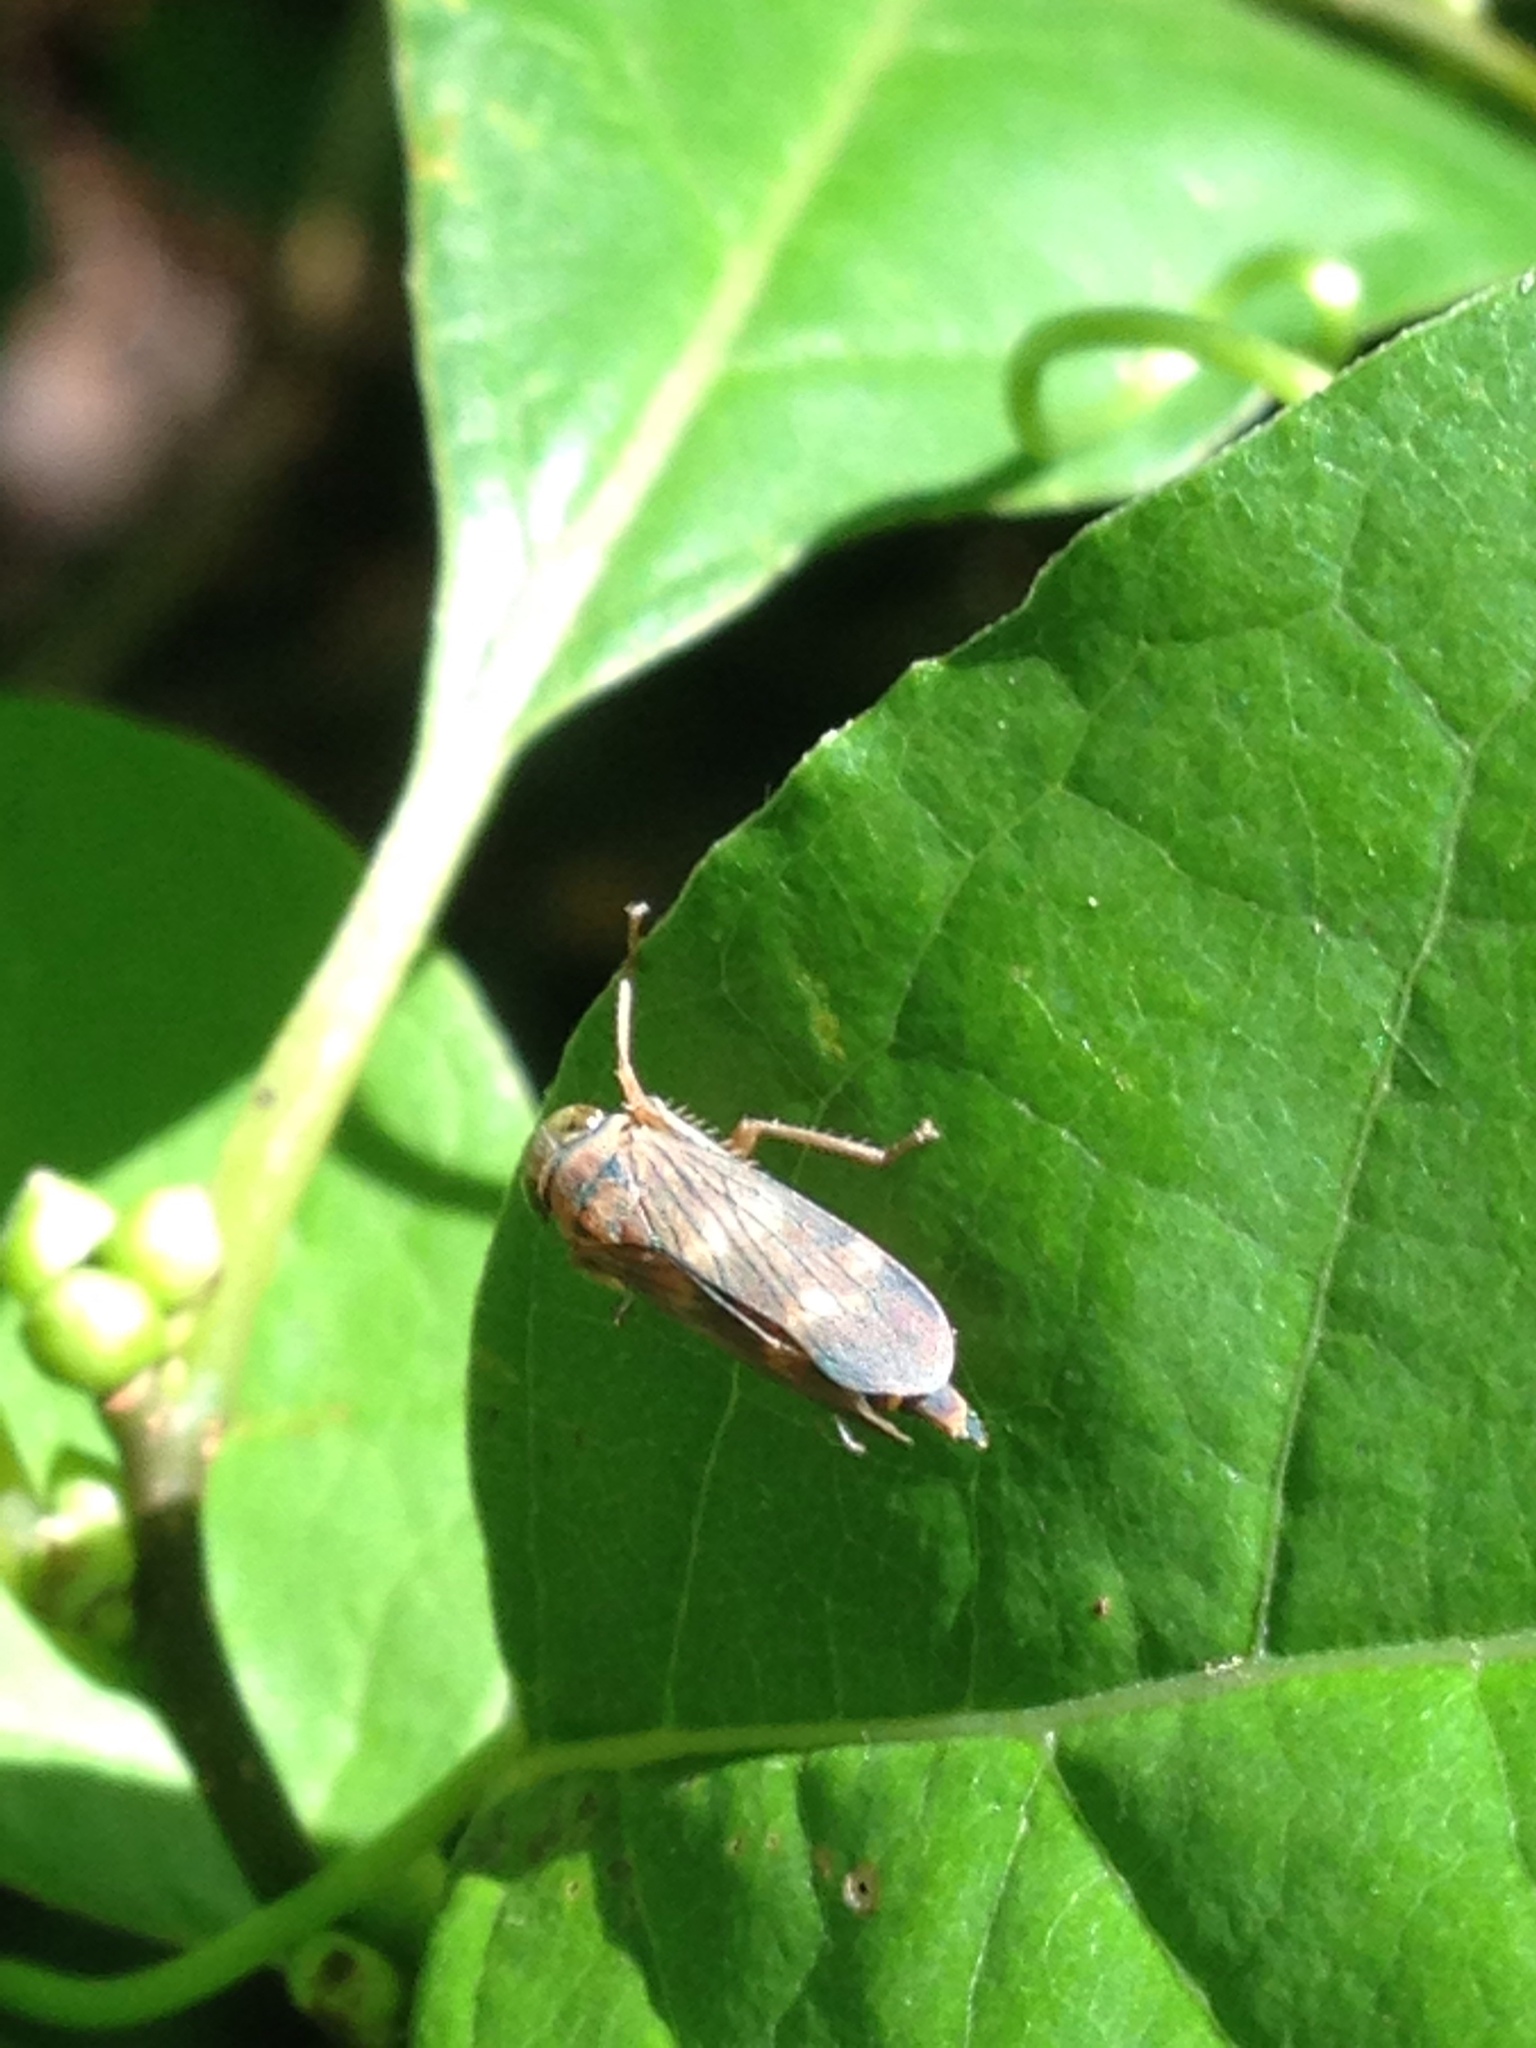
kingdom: Animalia
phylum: Arthropoda
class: Insecta
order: Hemiptera
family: Cicadellidae
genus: Jikradia
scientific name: Jikradia olitoria
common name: Coppery leafhopper
